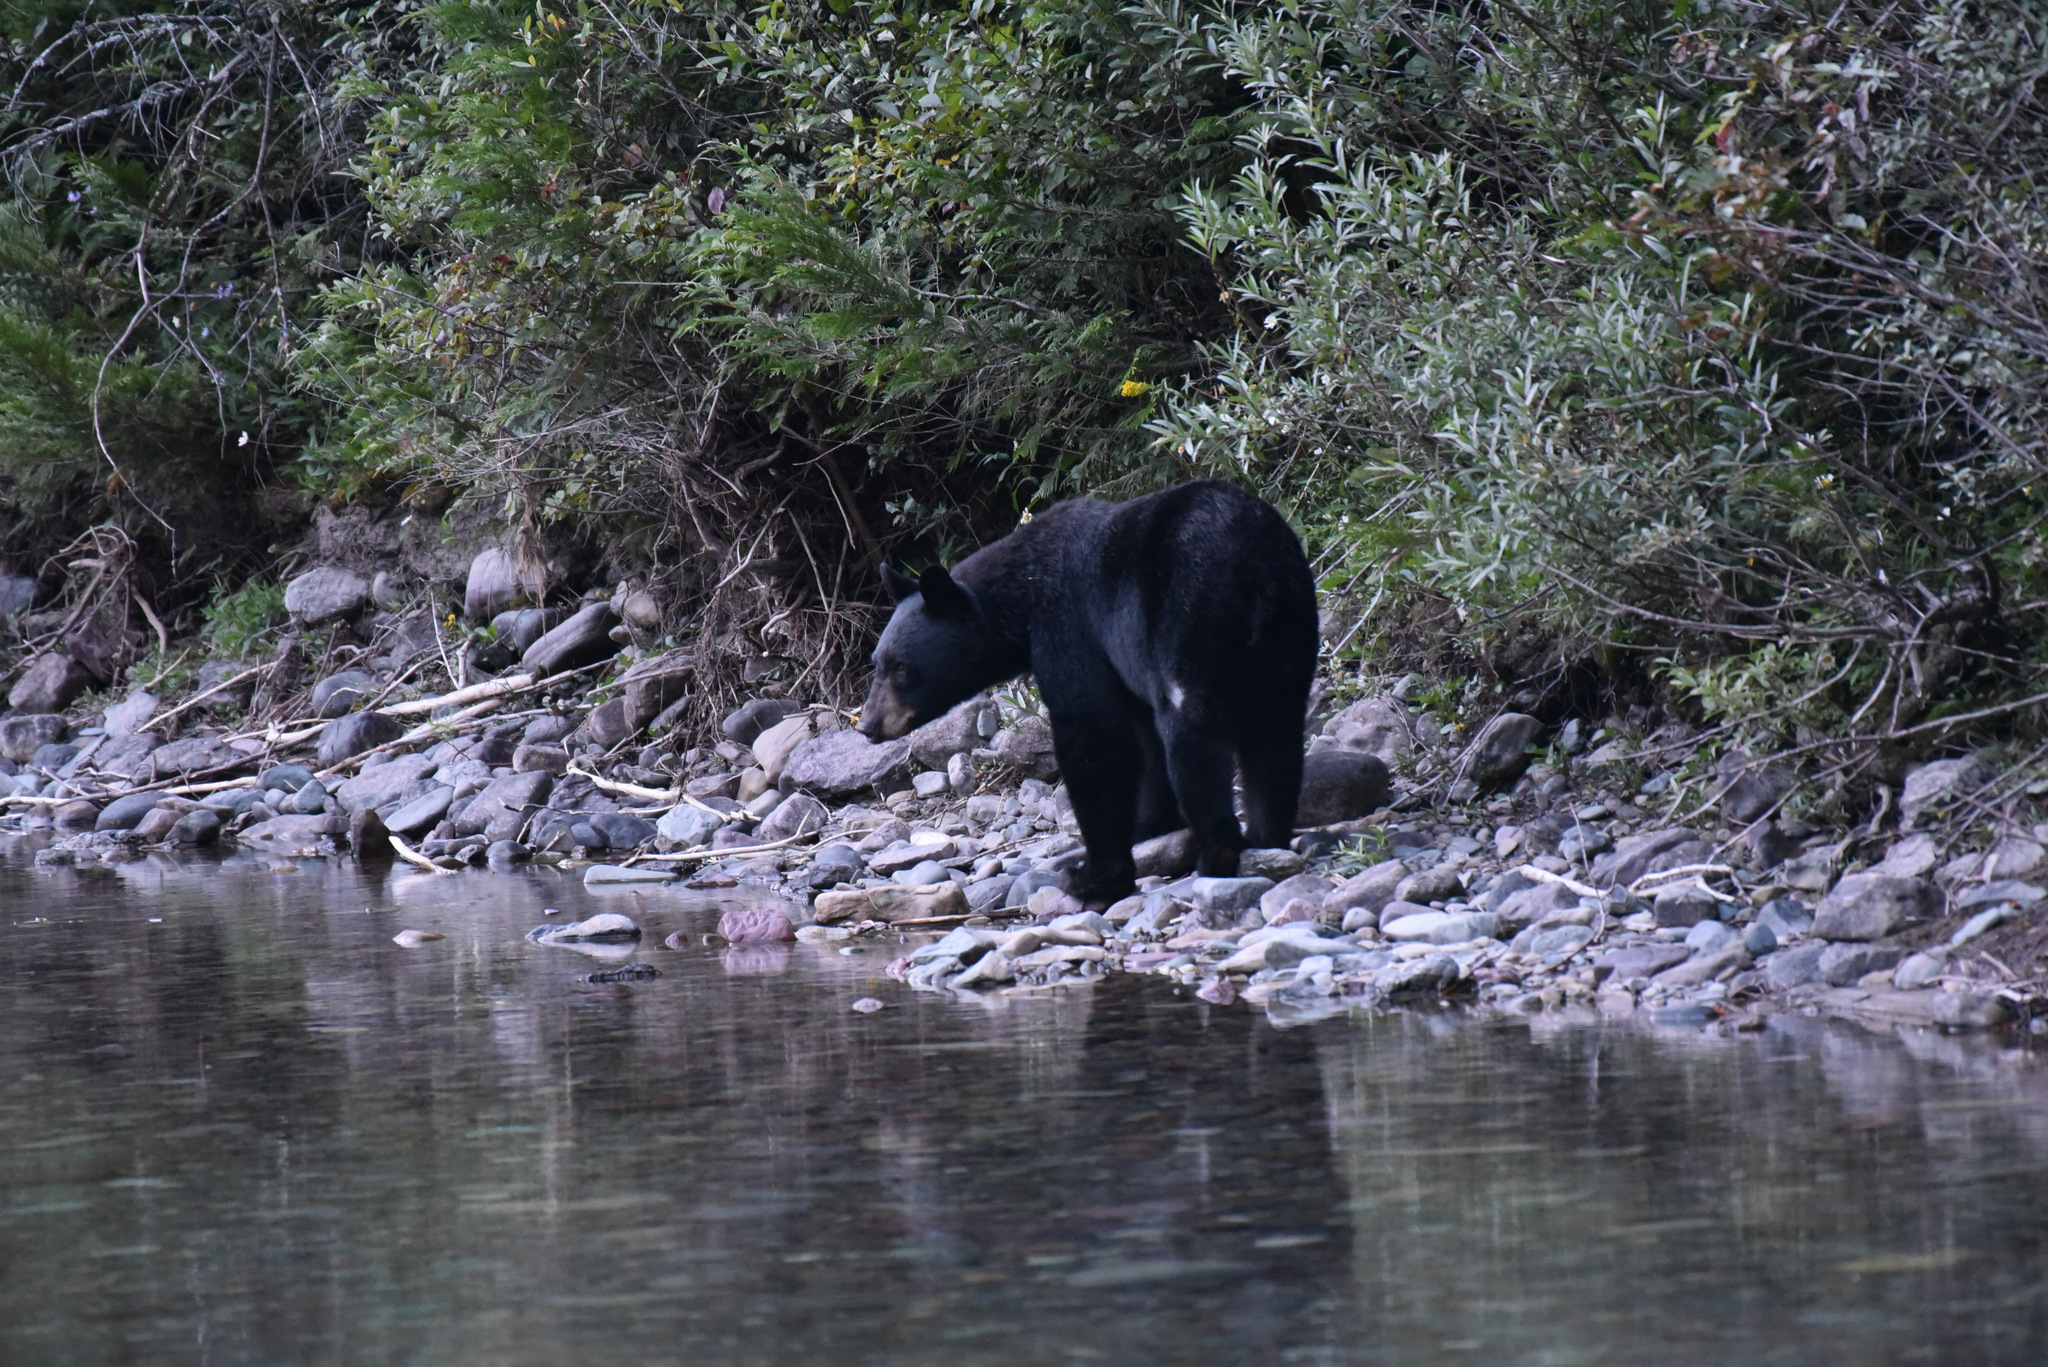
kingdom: Animalia
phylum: Chordata
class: Mammalia
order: Carnivora
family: Ursidae
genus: Ursus
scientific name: Ursus americanus
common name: American black bear
